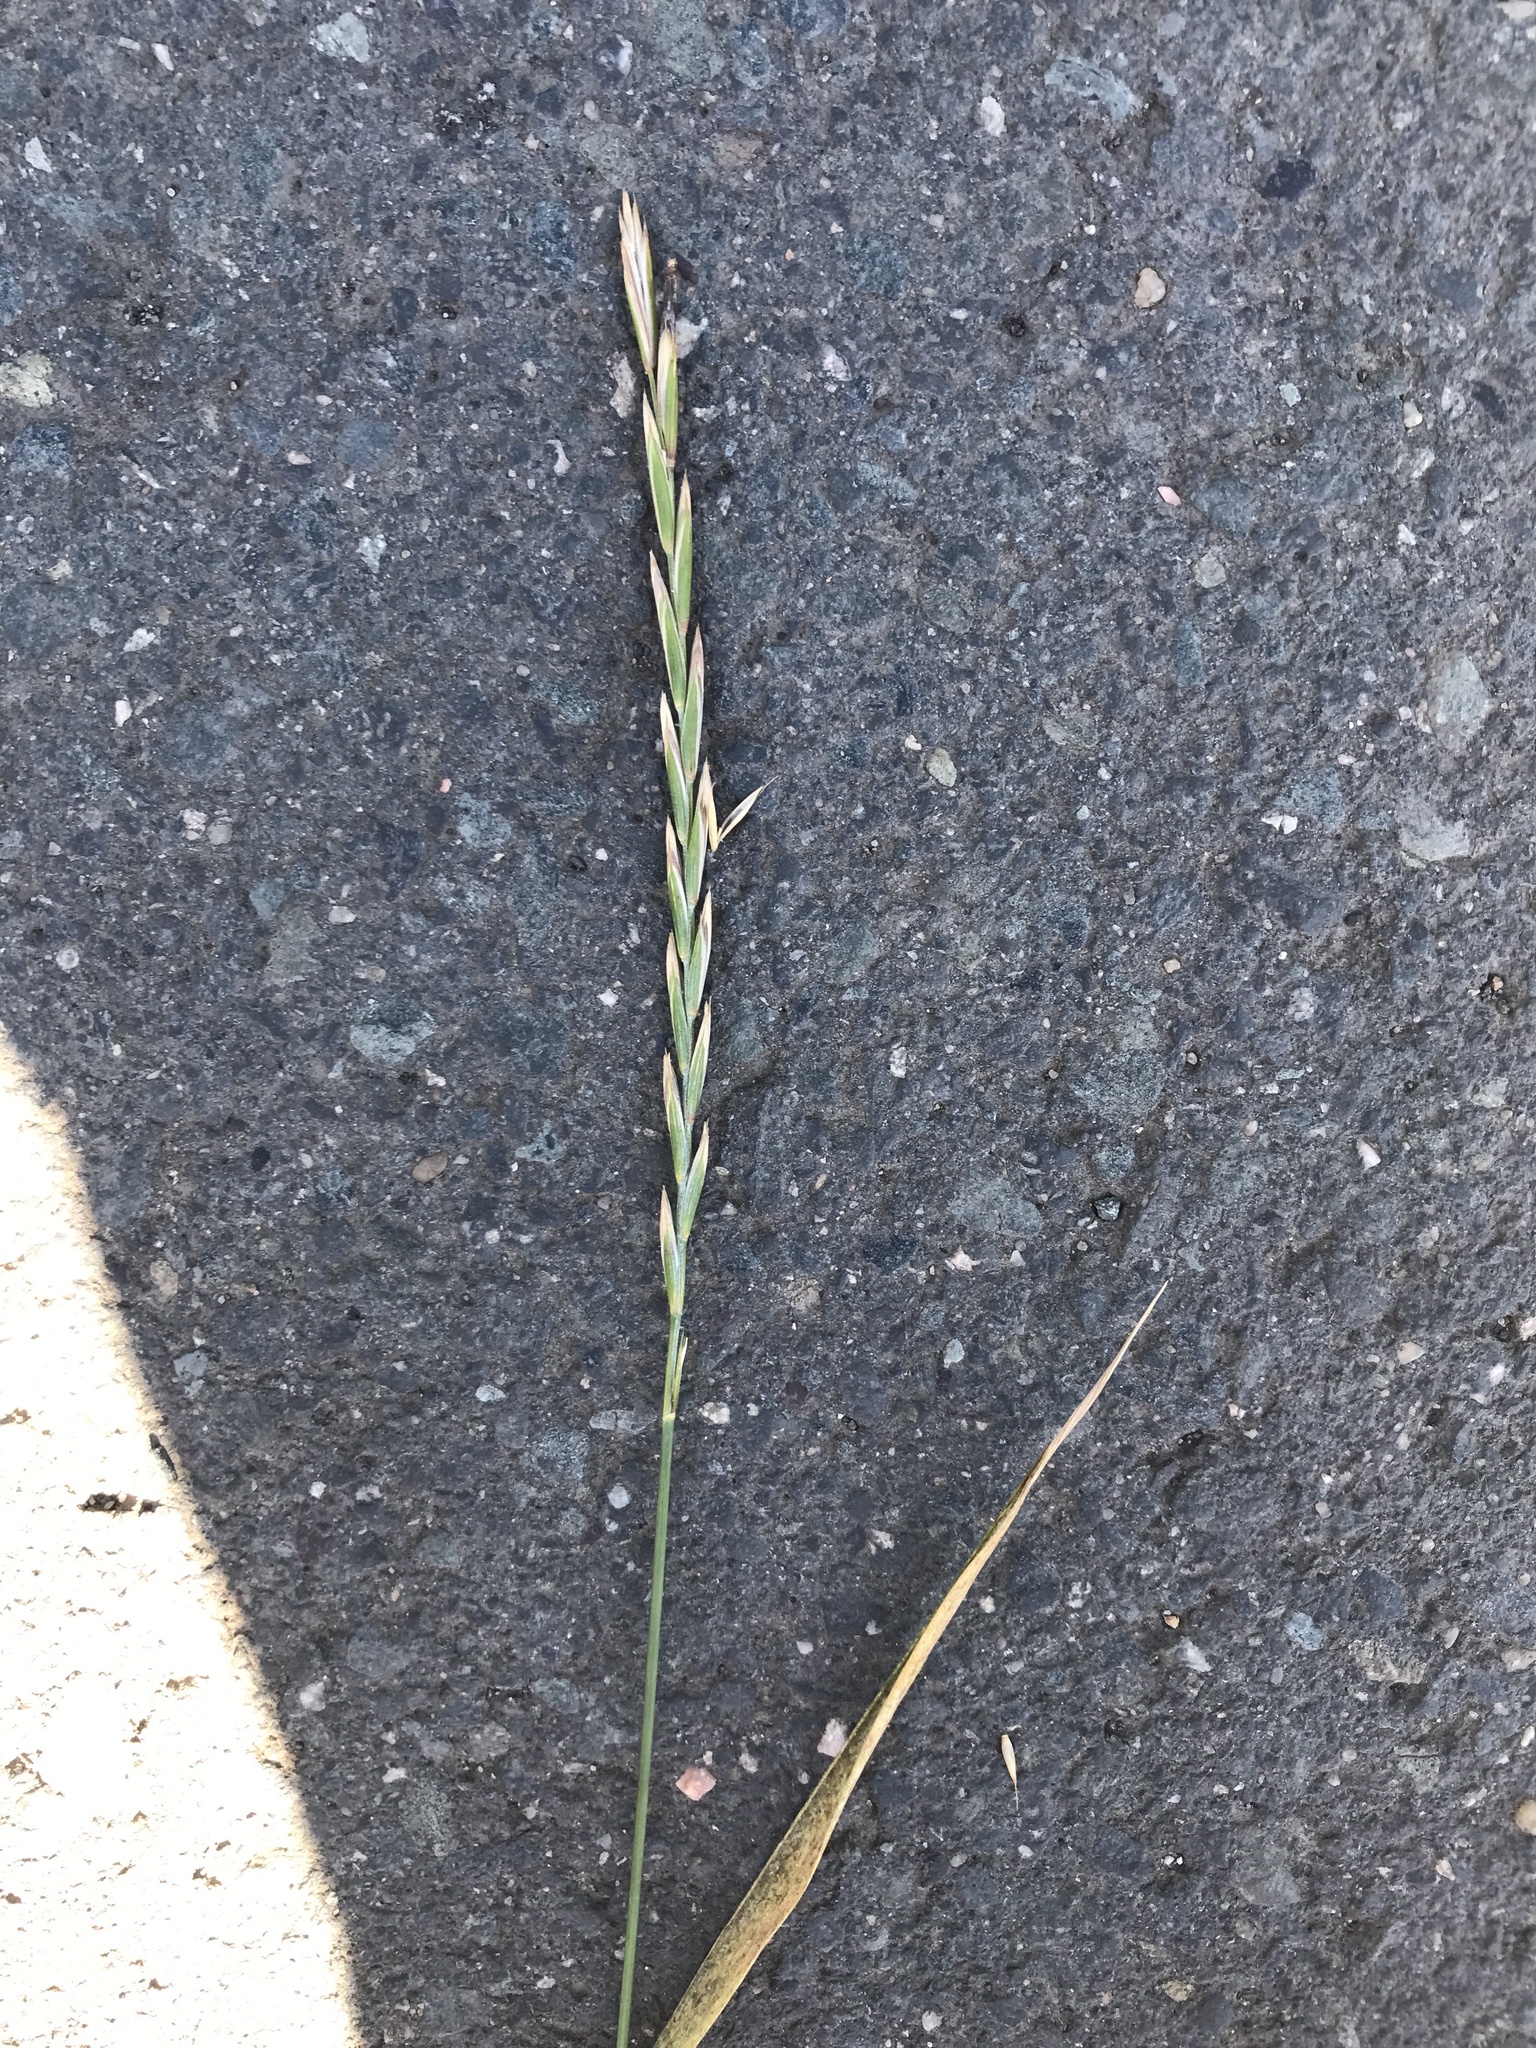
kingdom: Plantae
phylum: Tracheophyta
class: Liliopsida
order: Poales
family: Poaceae
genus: Elymus
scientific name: Elymus repens
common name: Quackgrass
